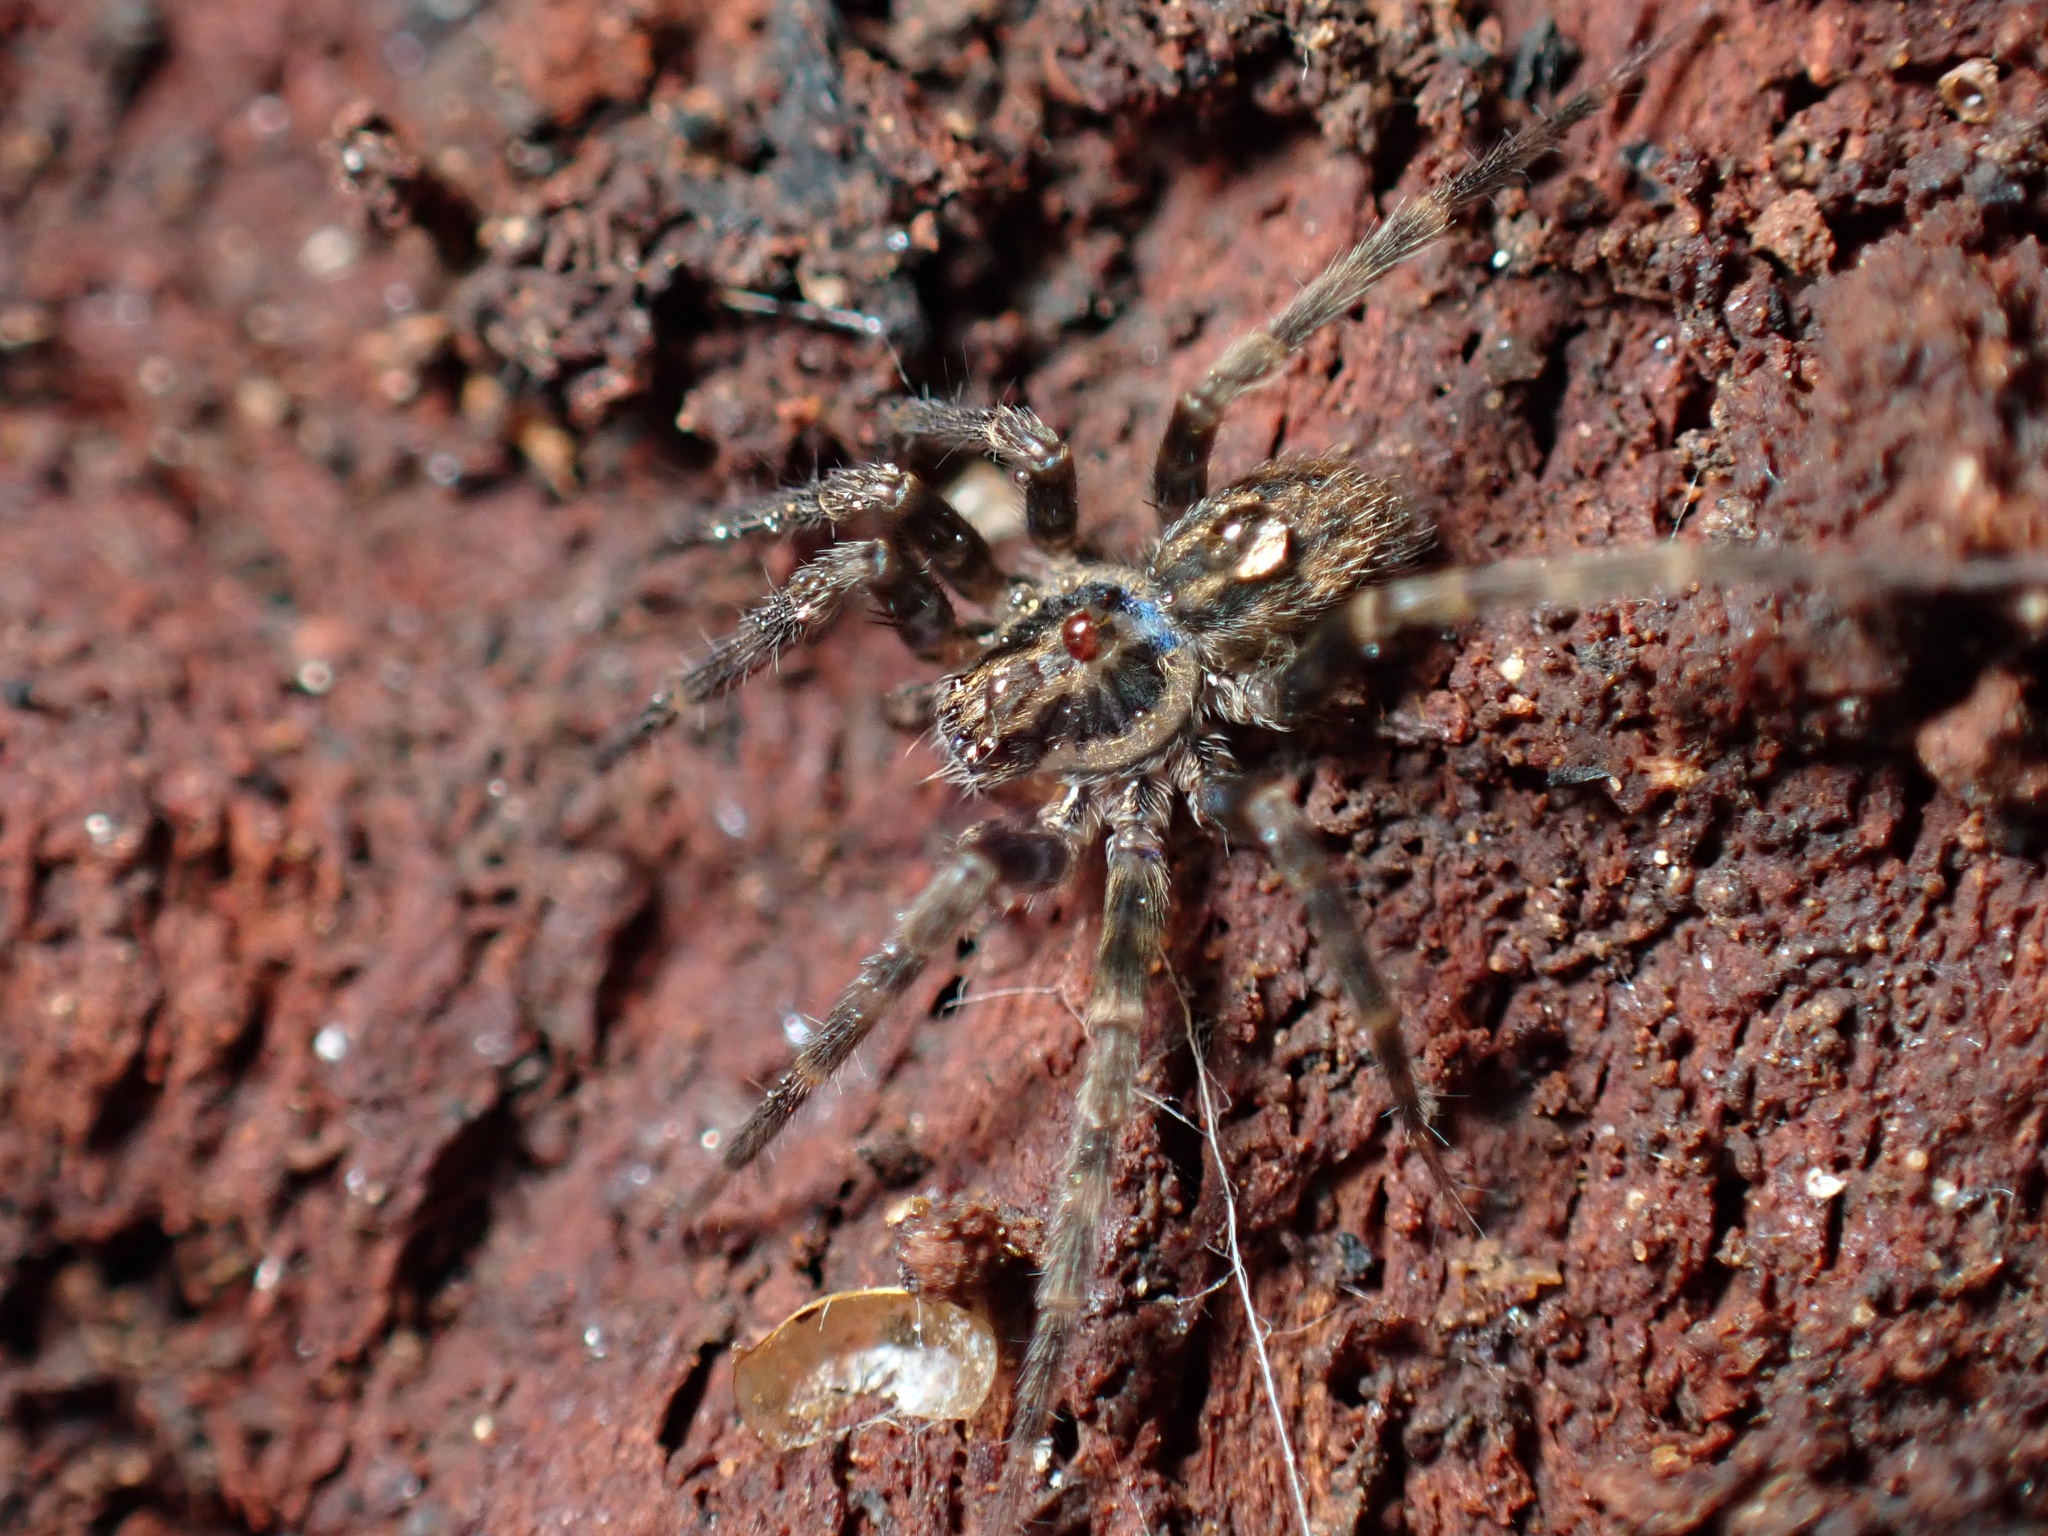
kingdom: Animalia
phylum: Arthropoda
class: Arachnida
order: Araneae
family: Zoropsidae
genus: Austrotengella
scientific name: Austrotengella hackerae
